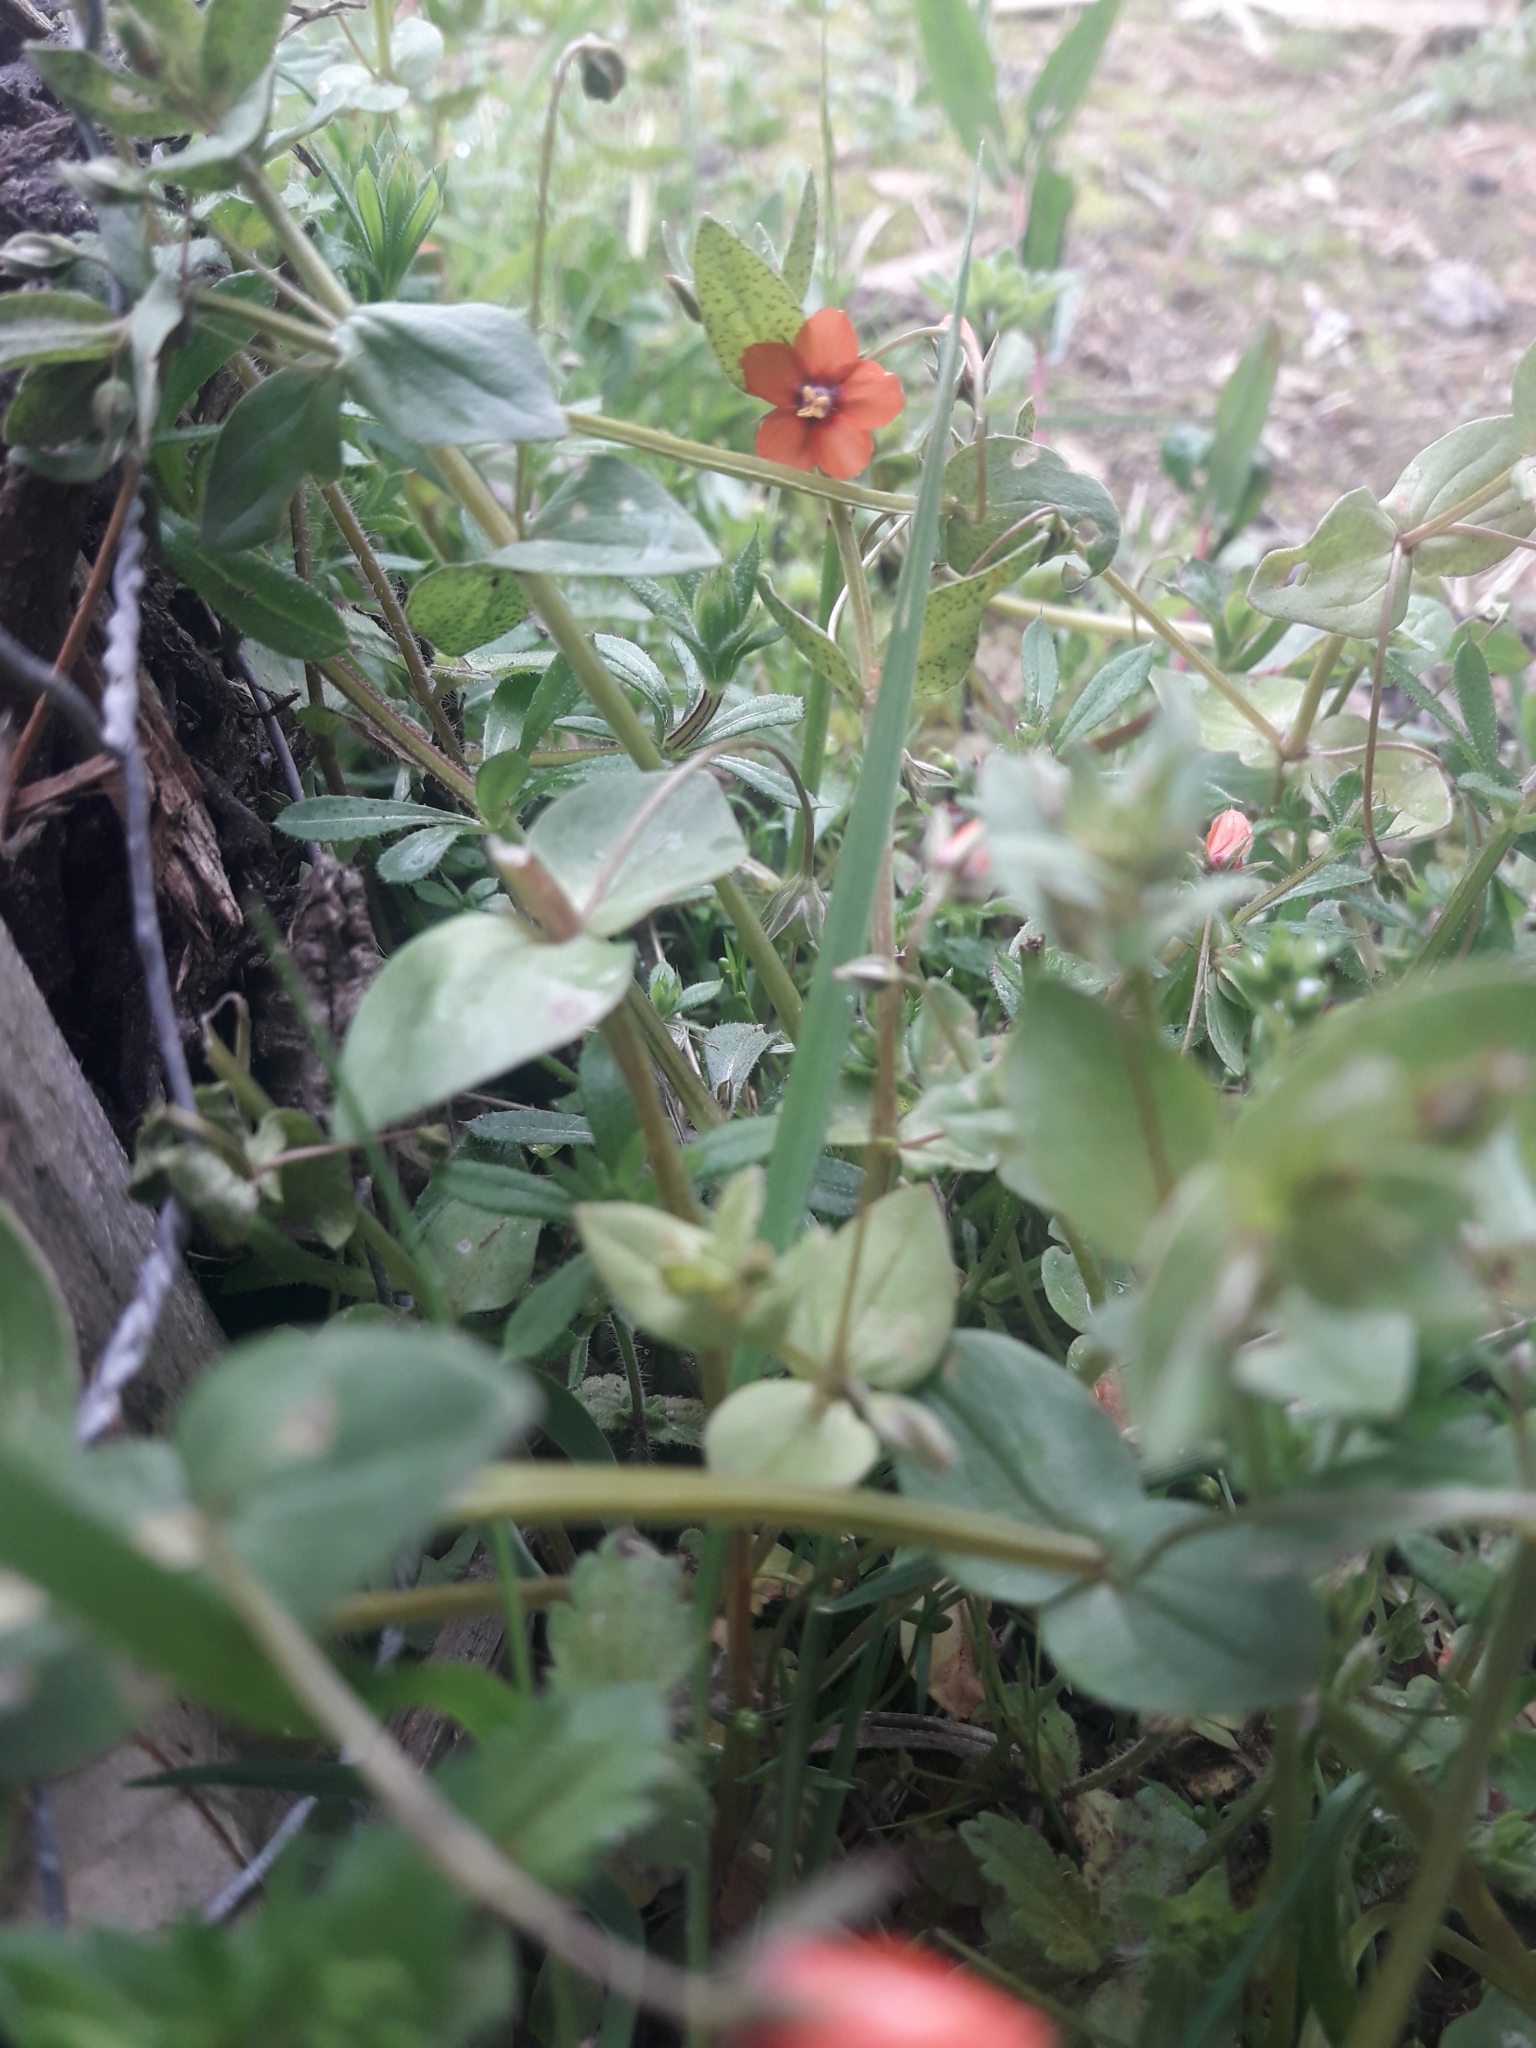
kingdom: Plantae
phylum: Tracheophyta
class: Magnoliopsida
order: Ericales
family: Primulaceae
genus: Lysimachia
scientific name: Lysimachia arvensis
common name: Scarlet pimpernel
